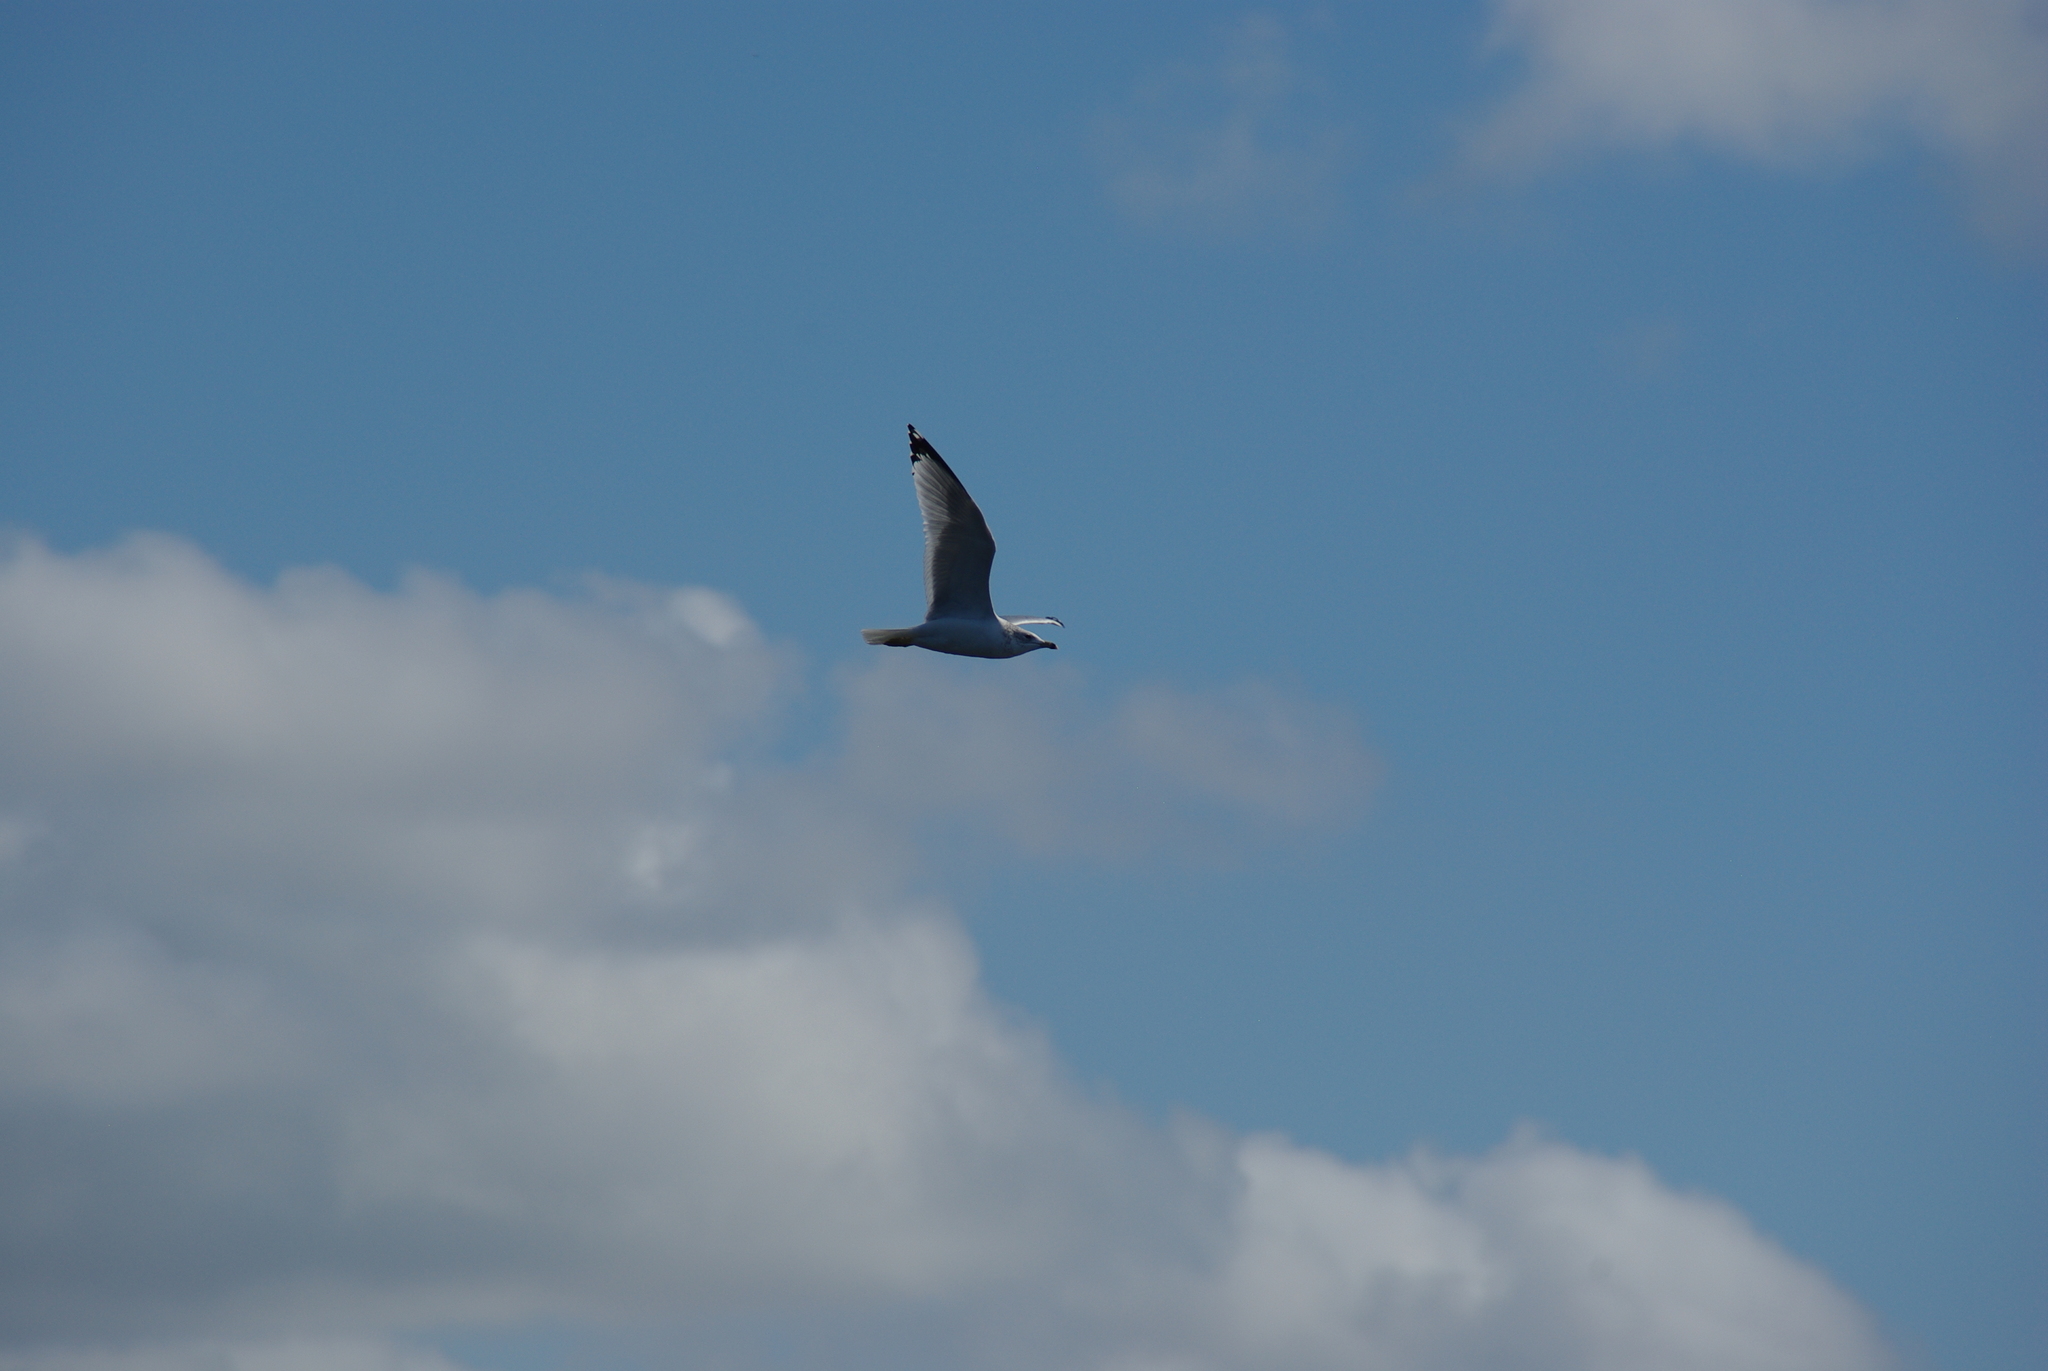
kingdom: Animalia
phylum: Chordata
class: Aves
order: Charadriiformes
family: Laridae
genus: Larus
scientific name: Larus delawarensis
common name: Ring-billed gull
